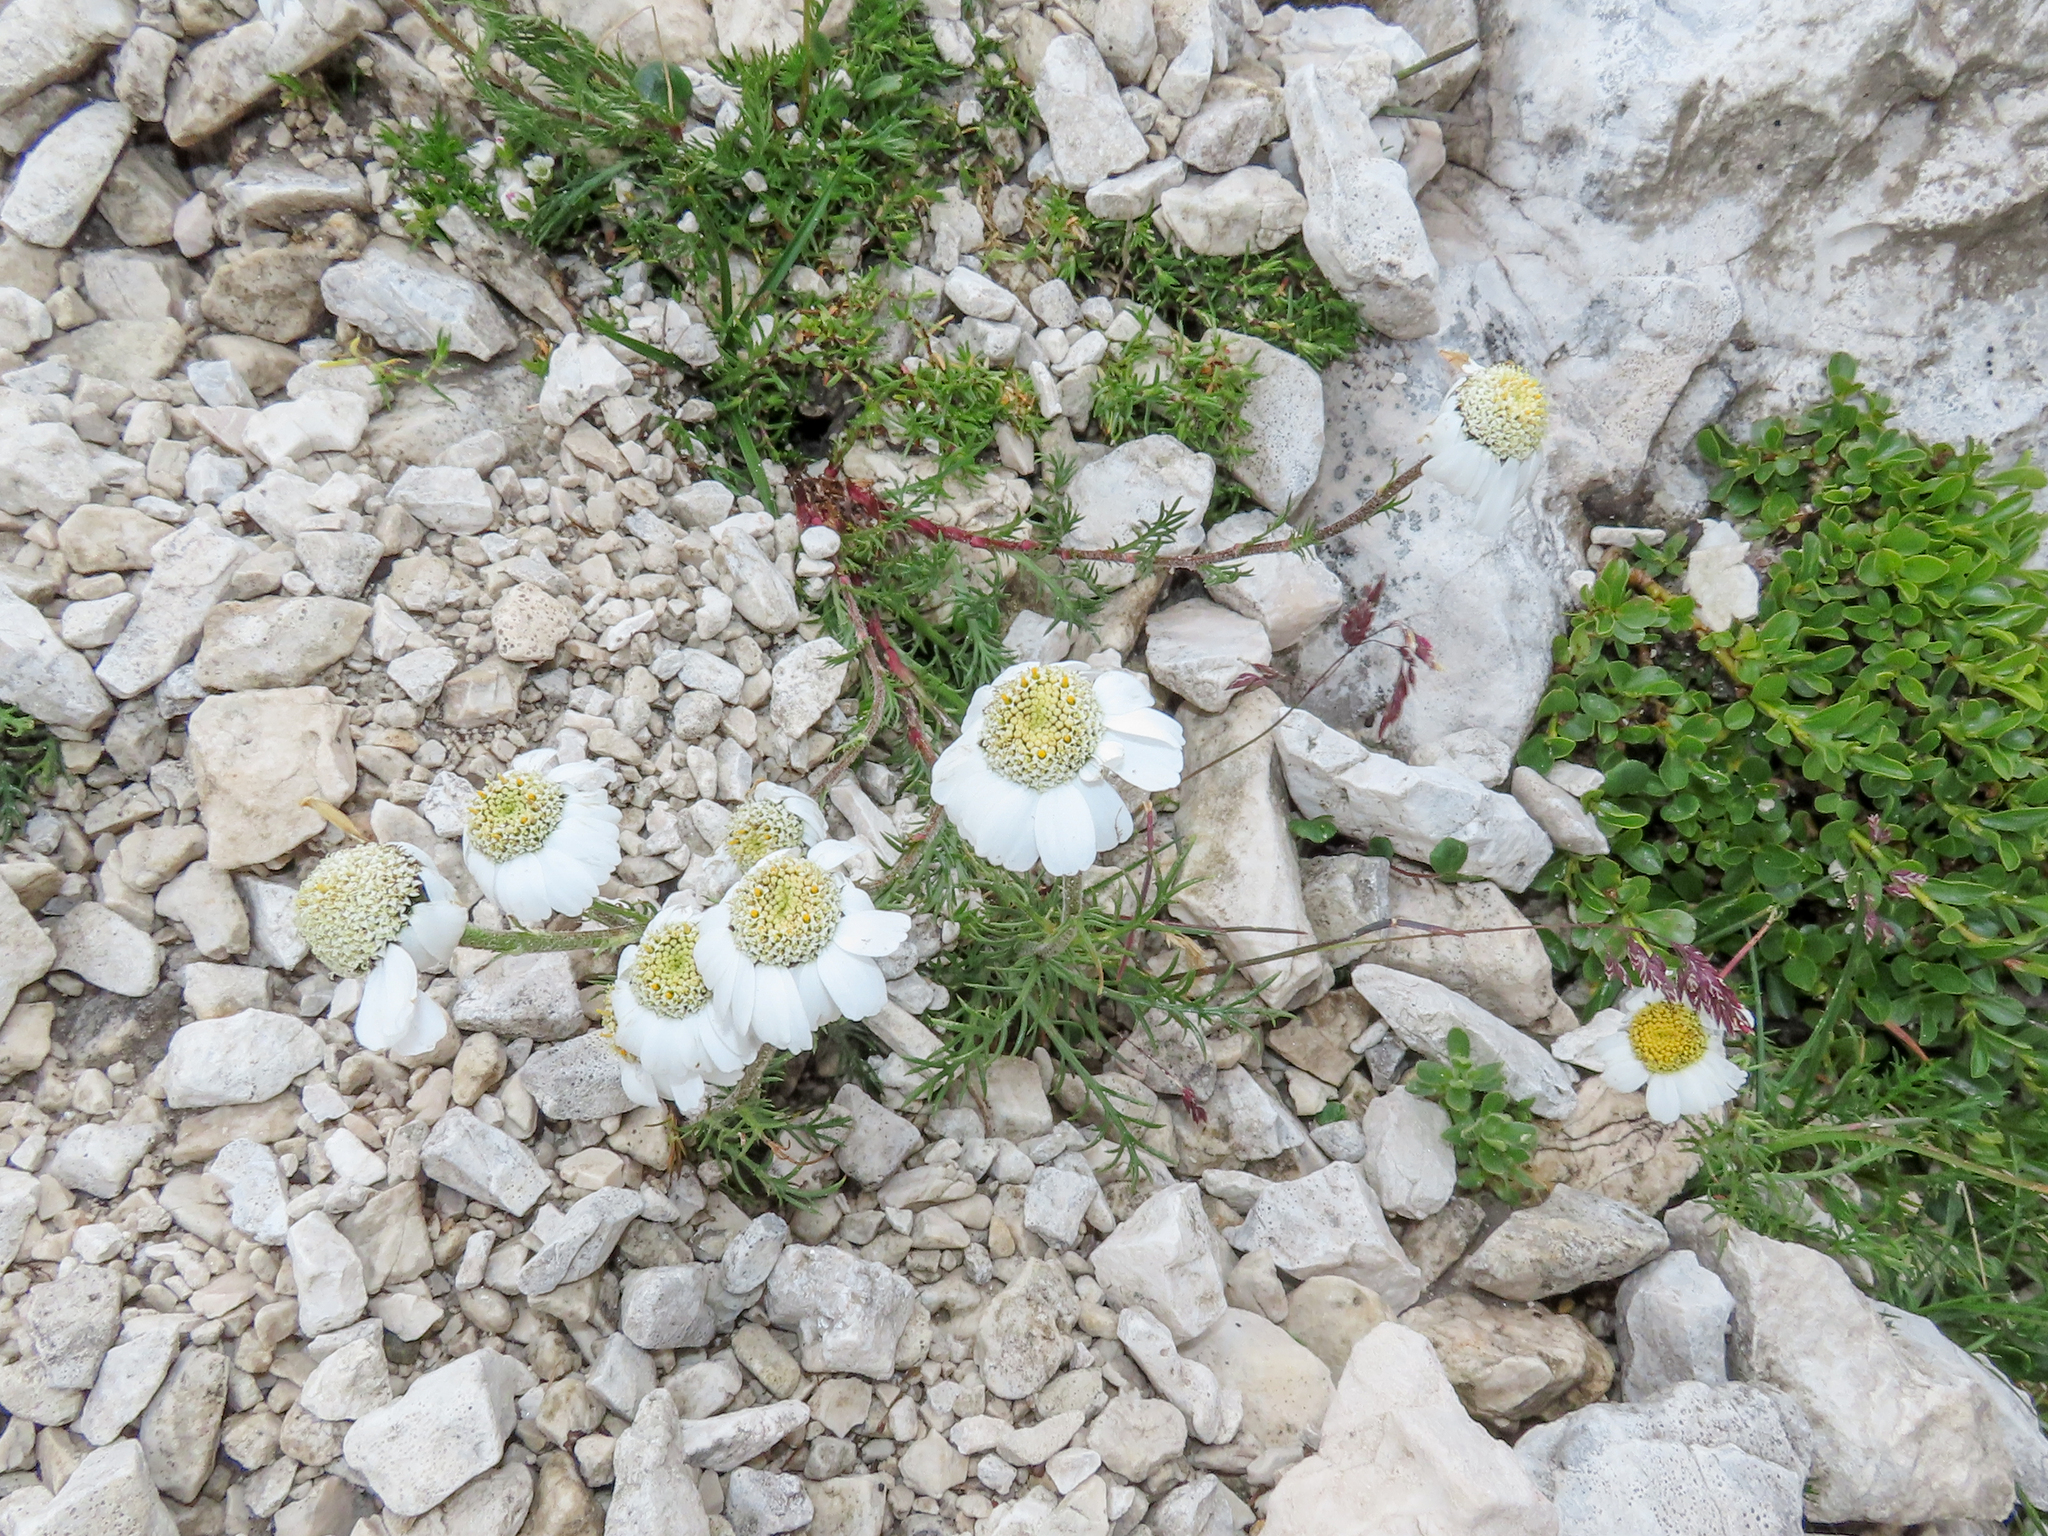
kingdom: Plantae
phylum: Tracheophyta
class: Magnoliopsida
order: Asterales
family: Asteraceae
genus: Achillea
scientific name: Achillea oxyloba
